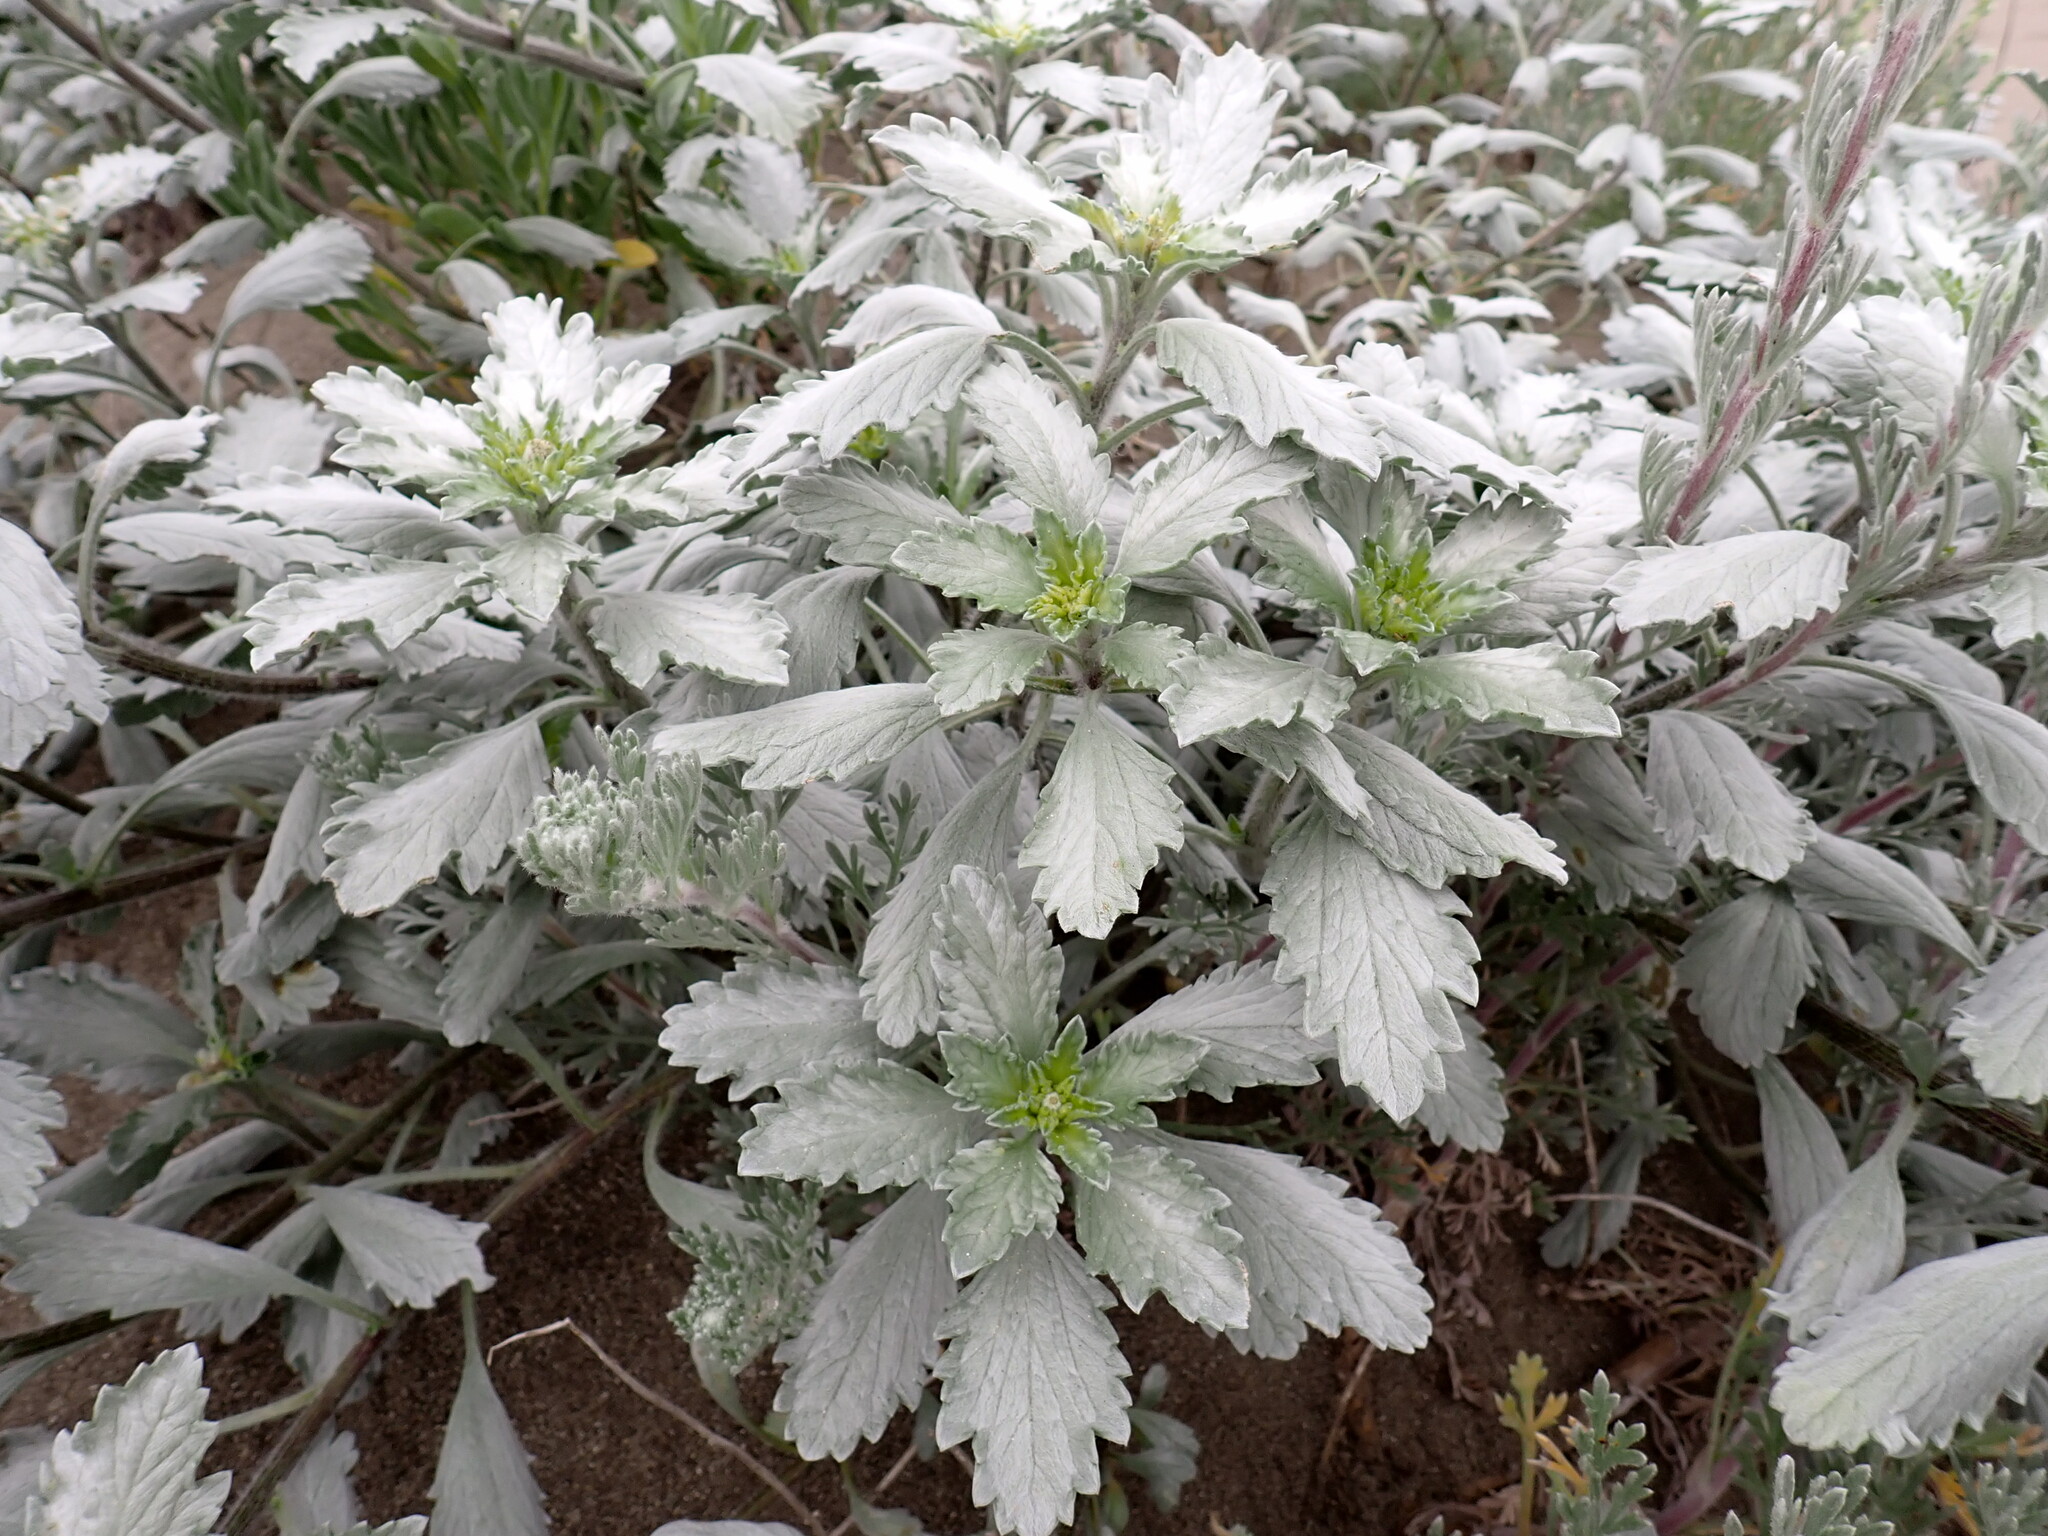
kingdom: Plantae
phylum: Tracheophyta
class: Magnoliopsida
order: Asterales
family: Asteraceae
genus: Ambrosia
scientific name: Ambrosia chamissonis
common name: Beachbur
